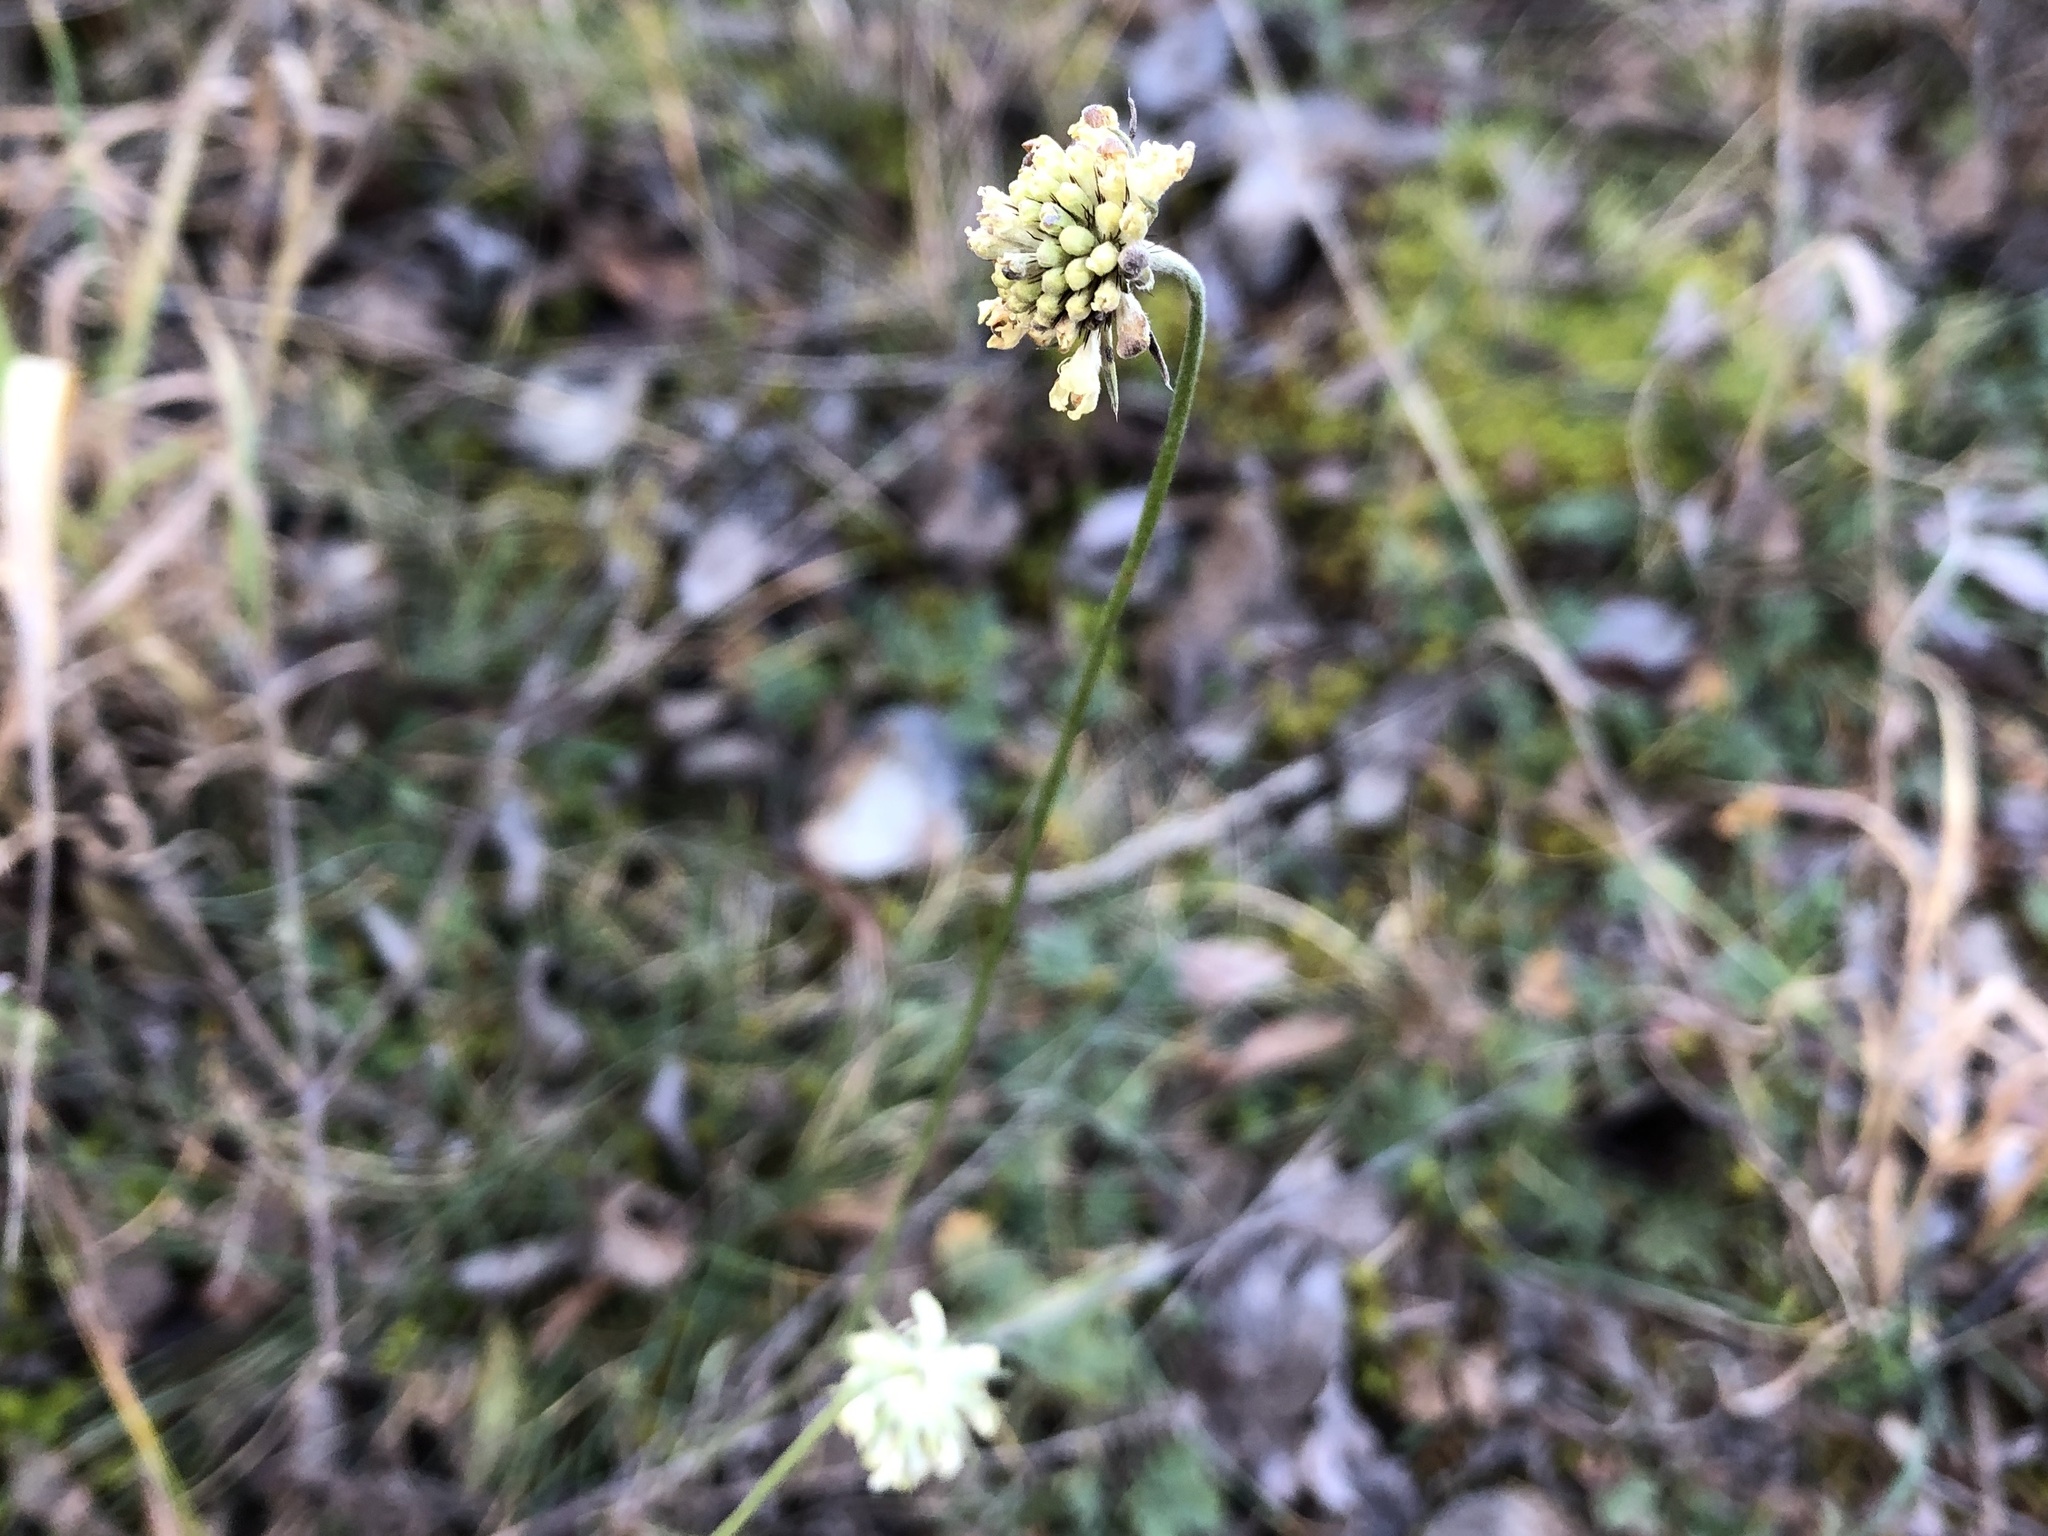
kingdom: Plantae
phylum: Tracheophyta
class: Magnoliopsida
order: Dipsacales
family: Caprifoliaceae
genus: Scabiosa
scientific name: Scabiosa ochroleuca
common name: Cream pincushions
